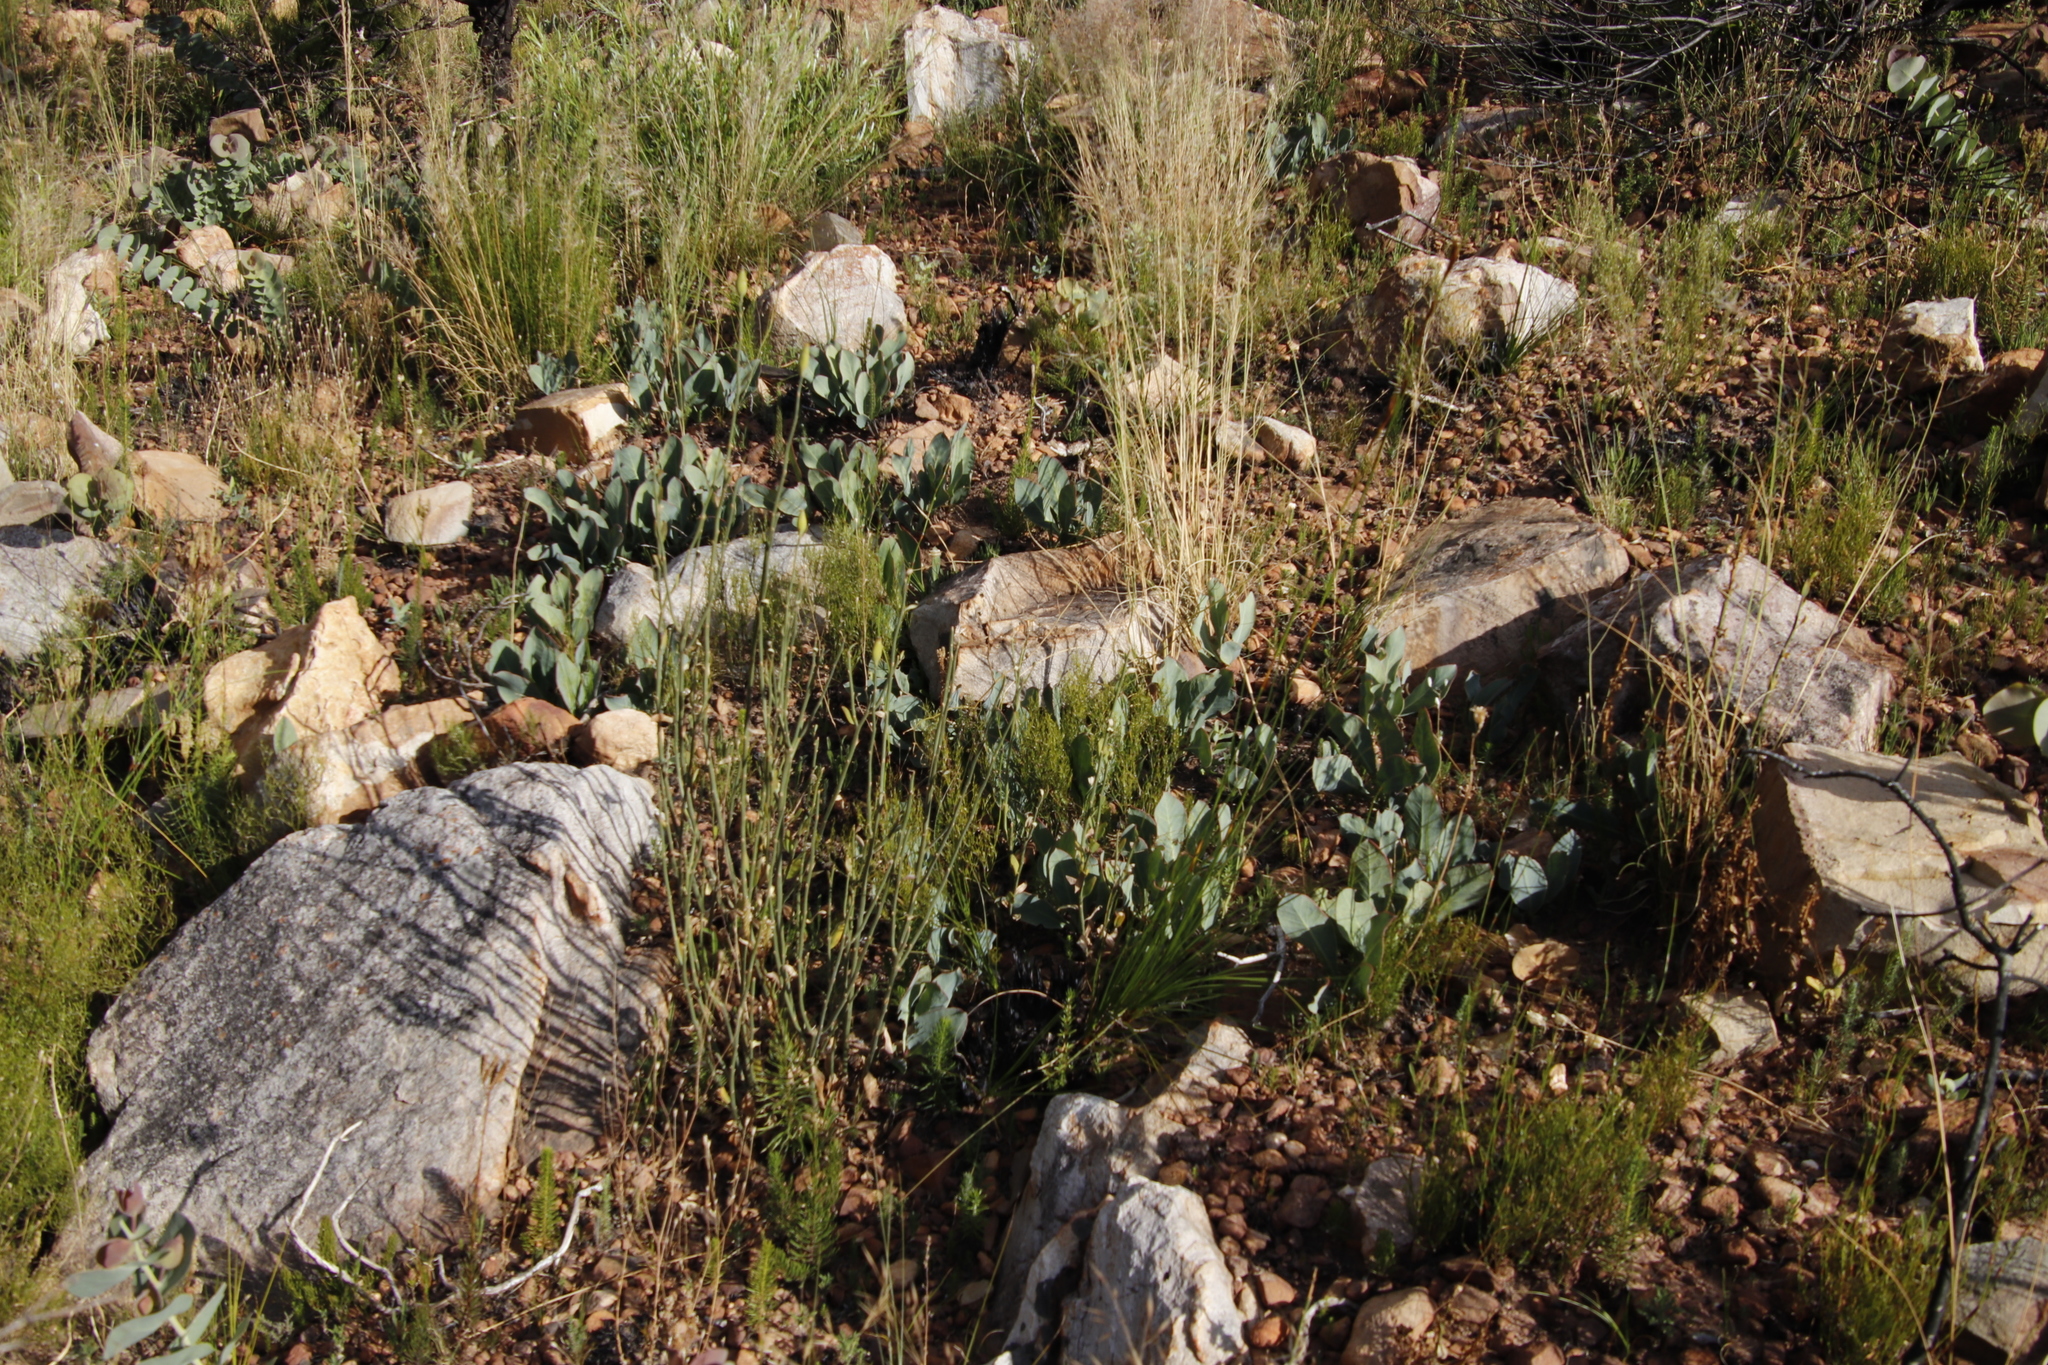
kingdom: Plantae
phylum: Tracheophyta
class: Magnoliopsida
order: Proteales
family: Proteaceae
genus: Protea
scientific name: Protea acaulos
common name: Common ground sugarbush
